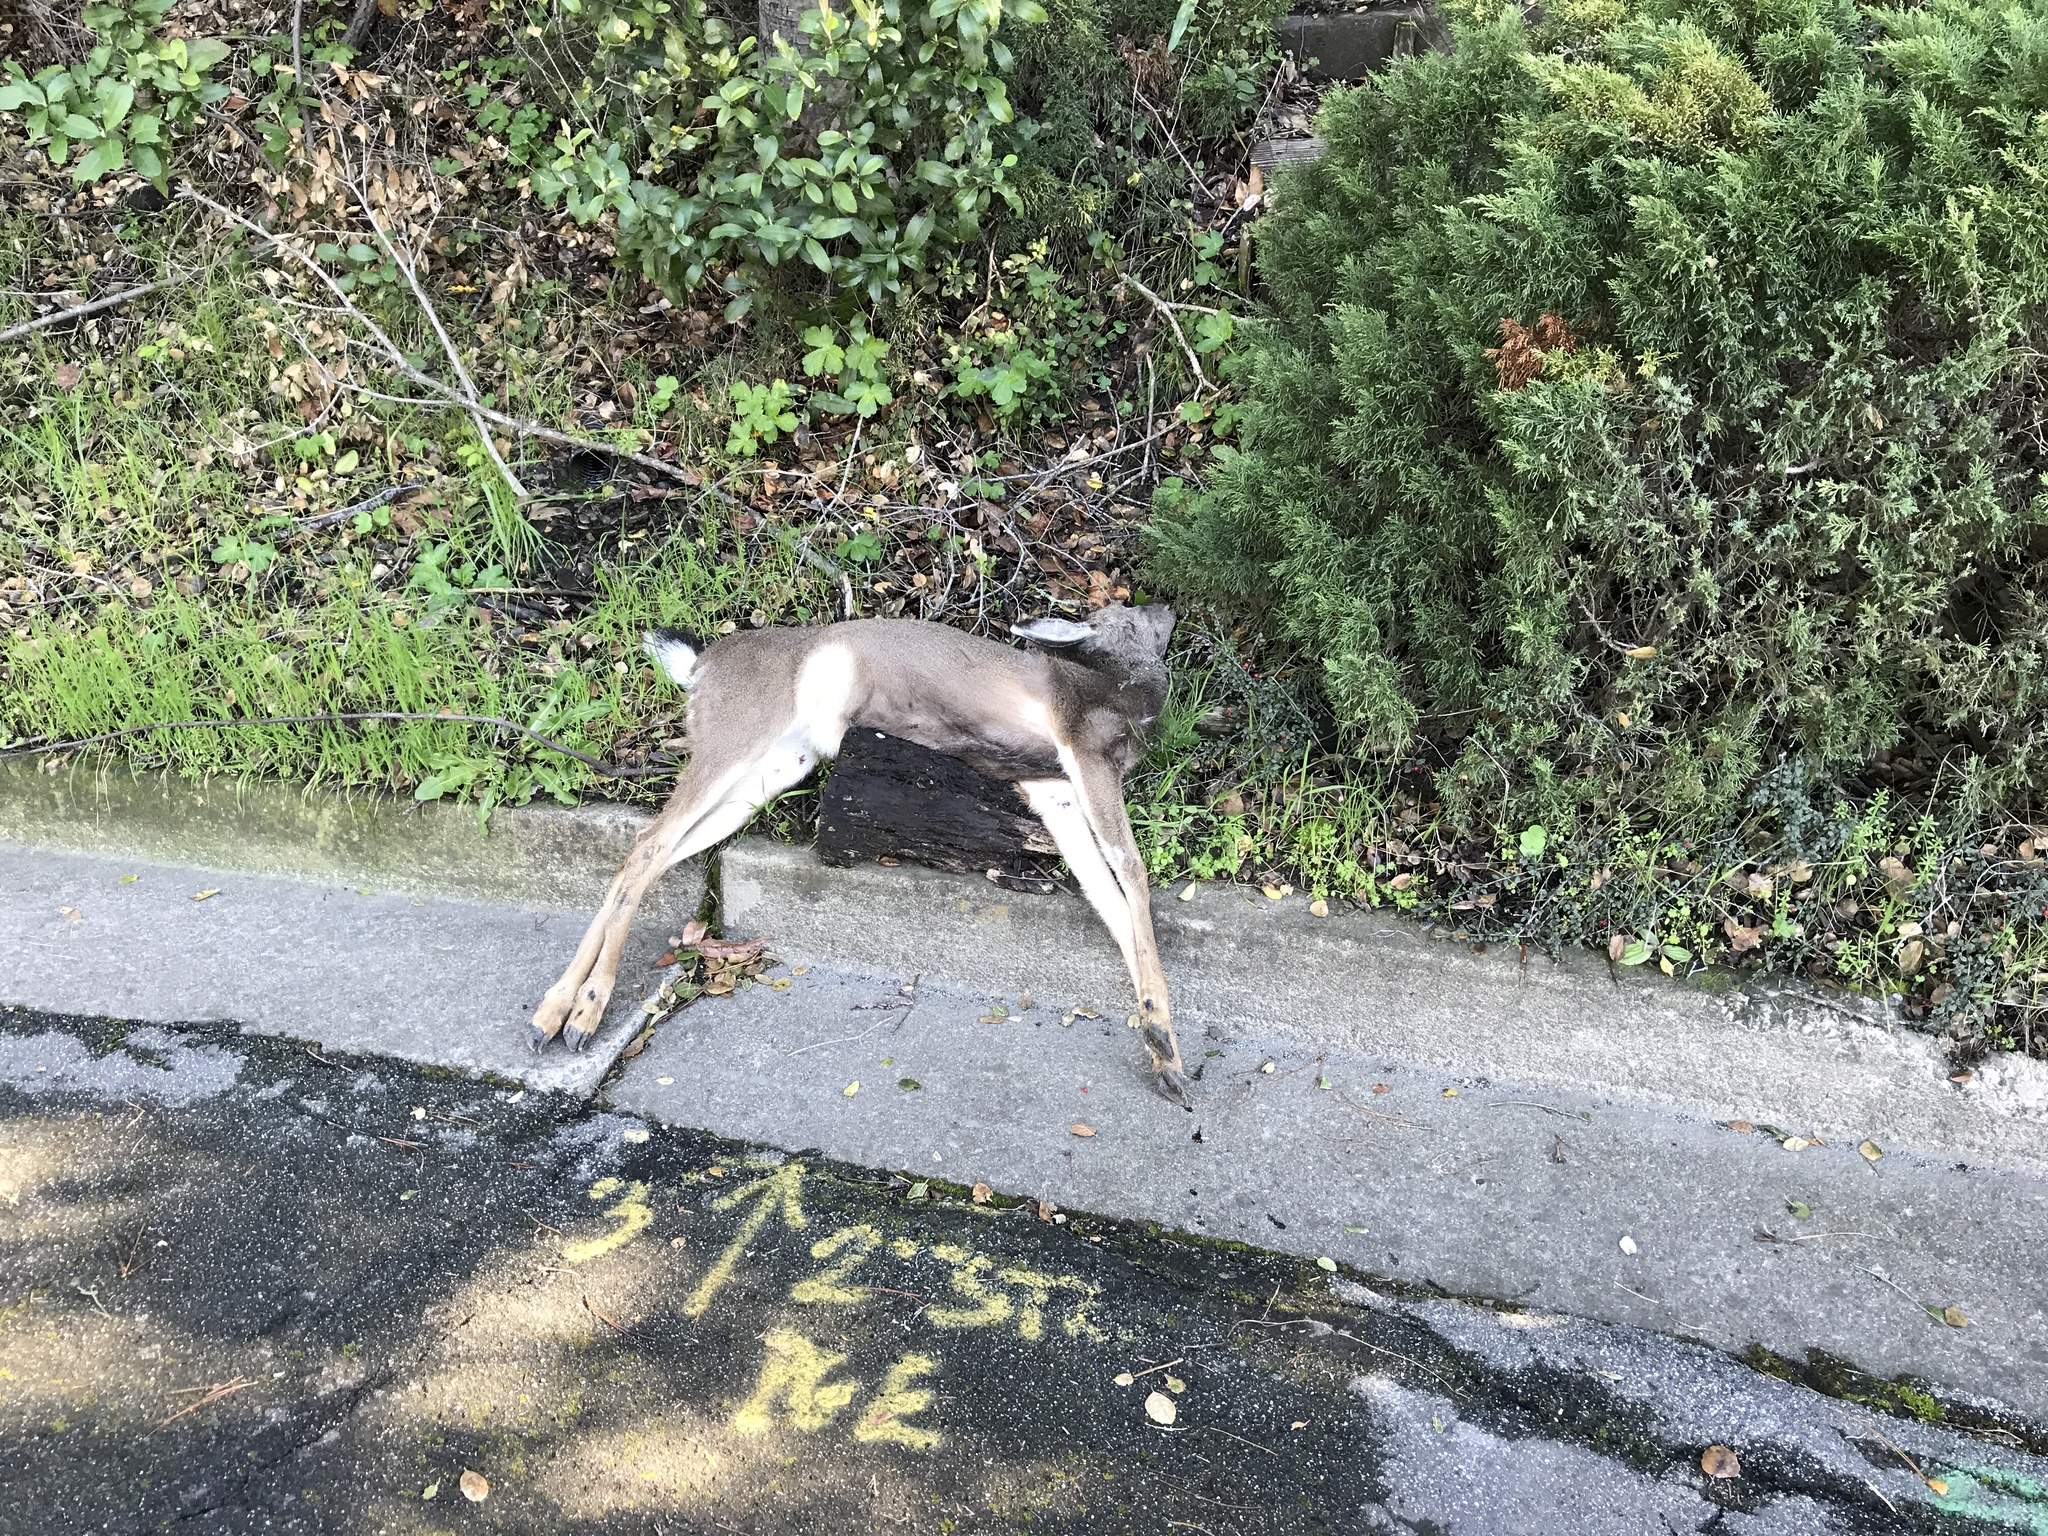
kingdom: Animalia
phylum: Chordata
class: Mammalia
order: Artiodactyla
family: Cervidae
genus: Odocoileus
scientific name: Odocoileus hemionus
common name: Mule deer
